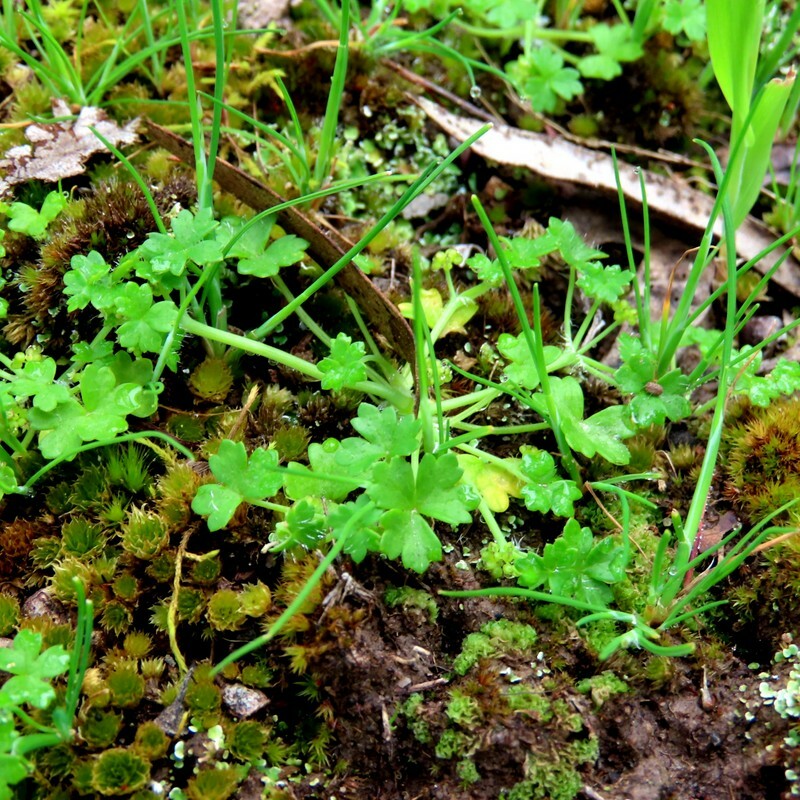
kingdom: Plantae
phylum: Tracheophyta
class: Magnoliopsida
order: Apiales
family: Araliaceae
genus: Hydrocotyle
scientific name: Hydrocotyle foveolata
